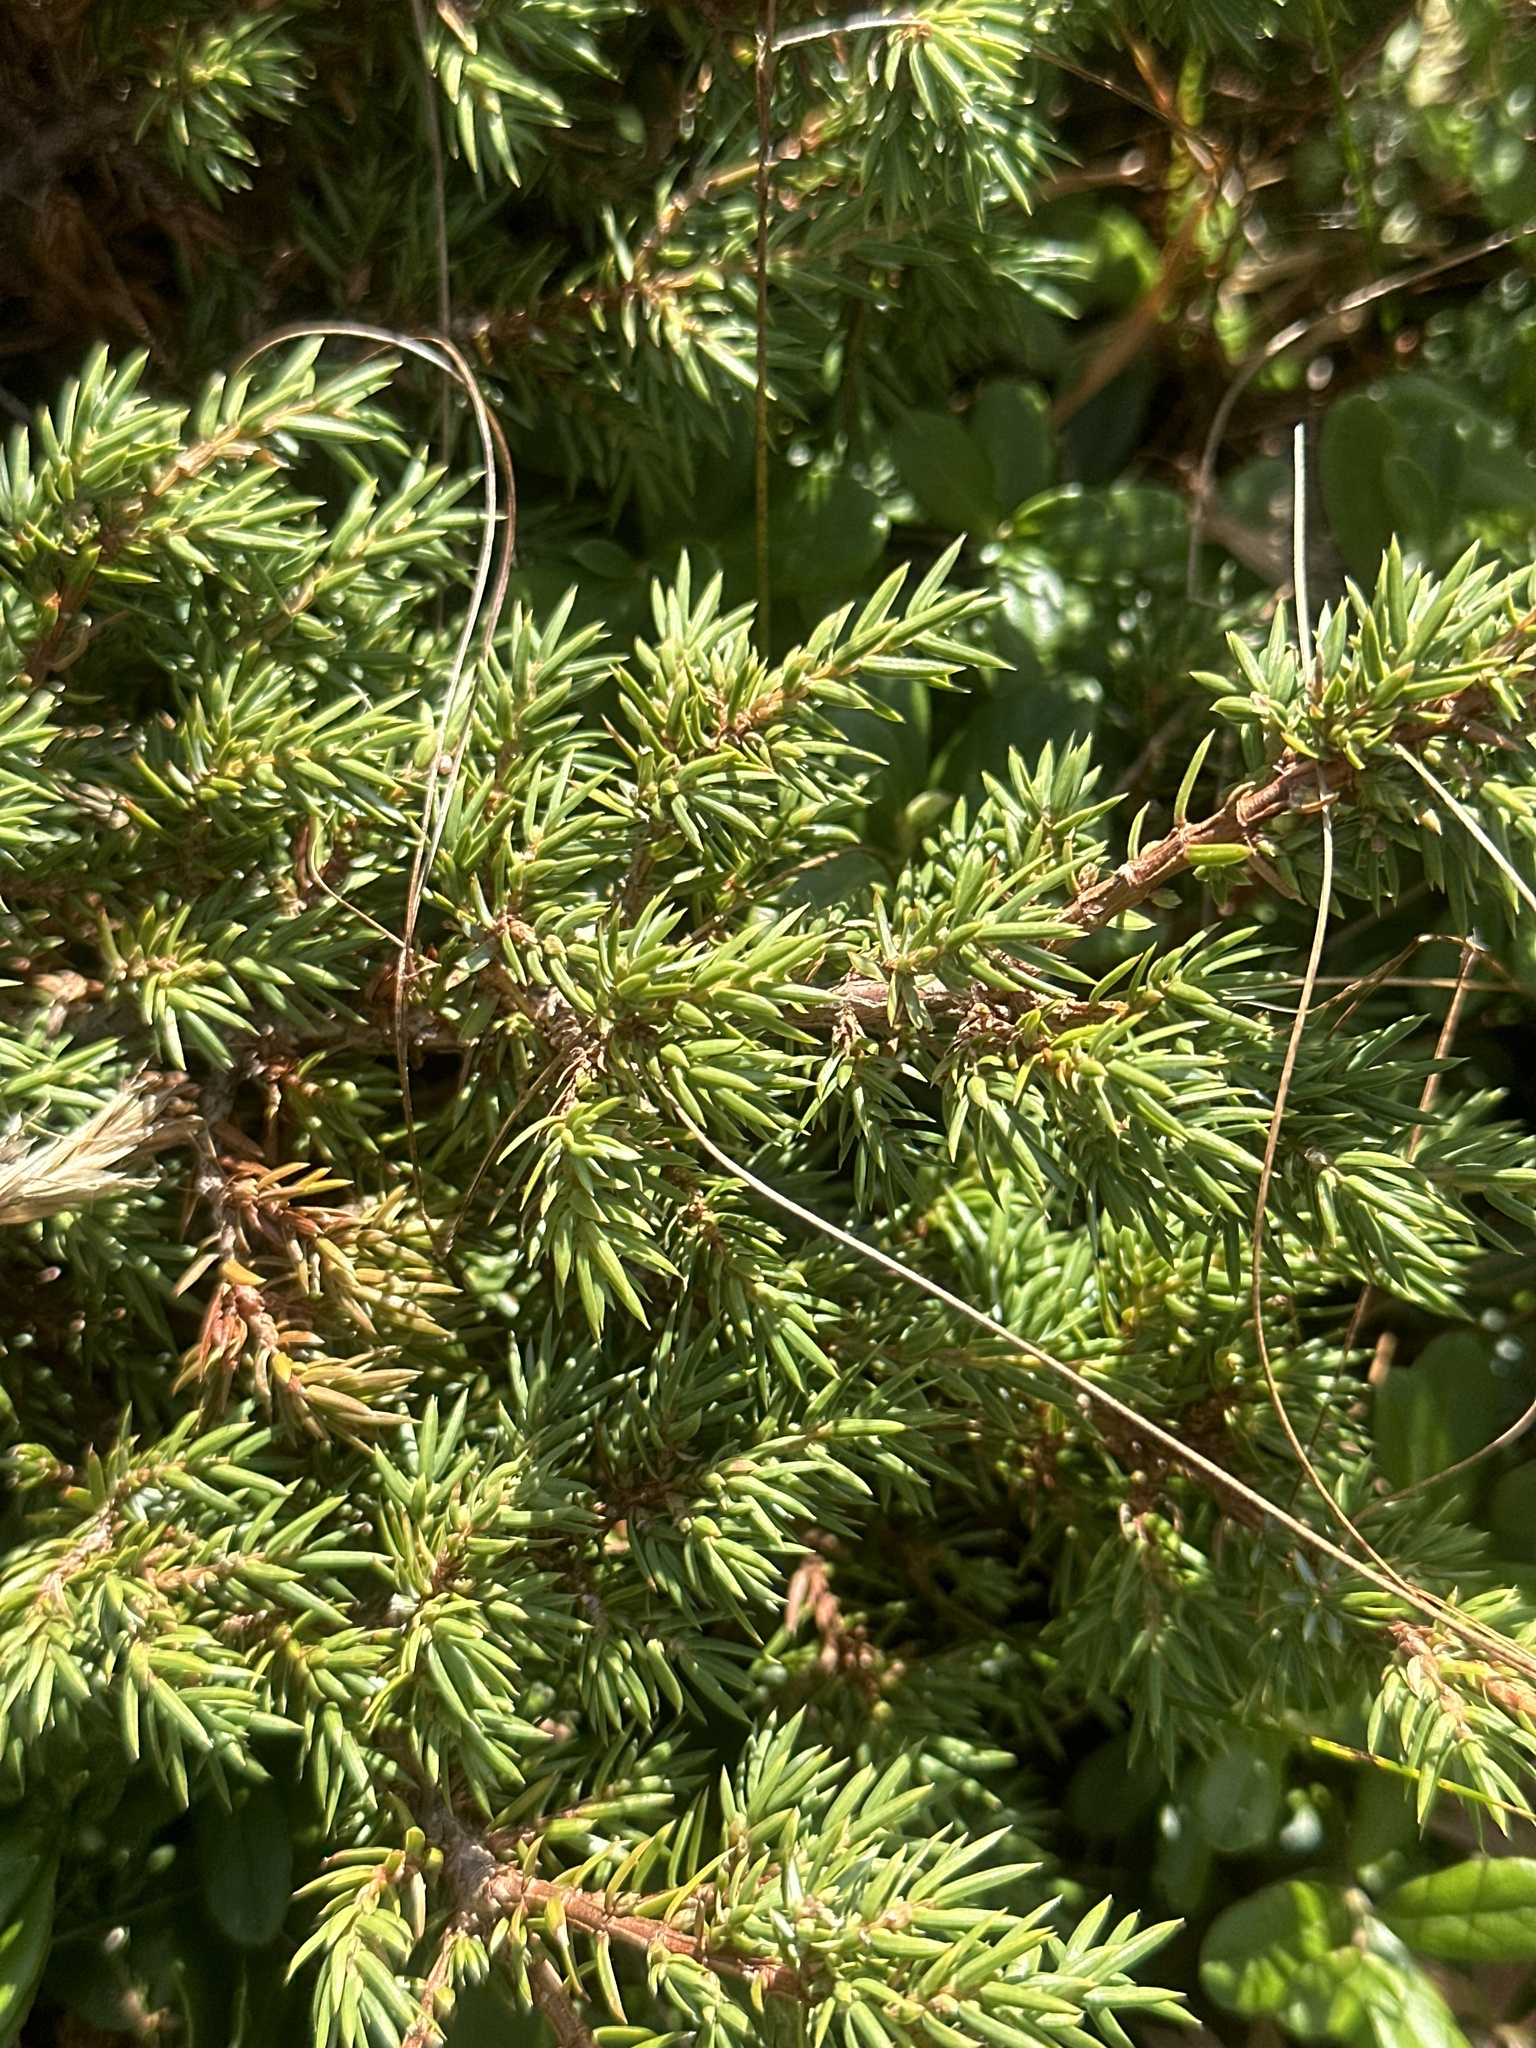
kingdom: Plantae
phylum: Tracheophyta
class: Pinopsida
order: Pinales
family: Cupressaceae
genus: Juniperus
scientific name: Juniperus communis
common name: Common juniper
